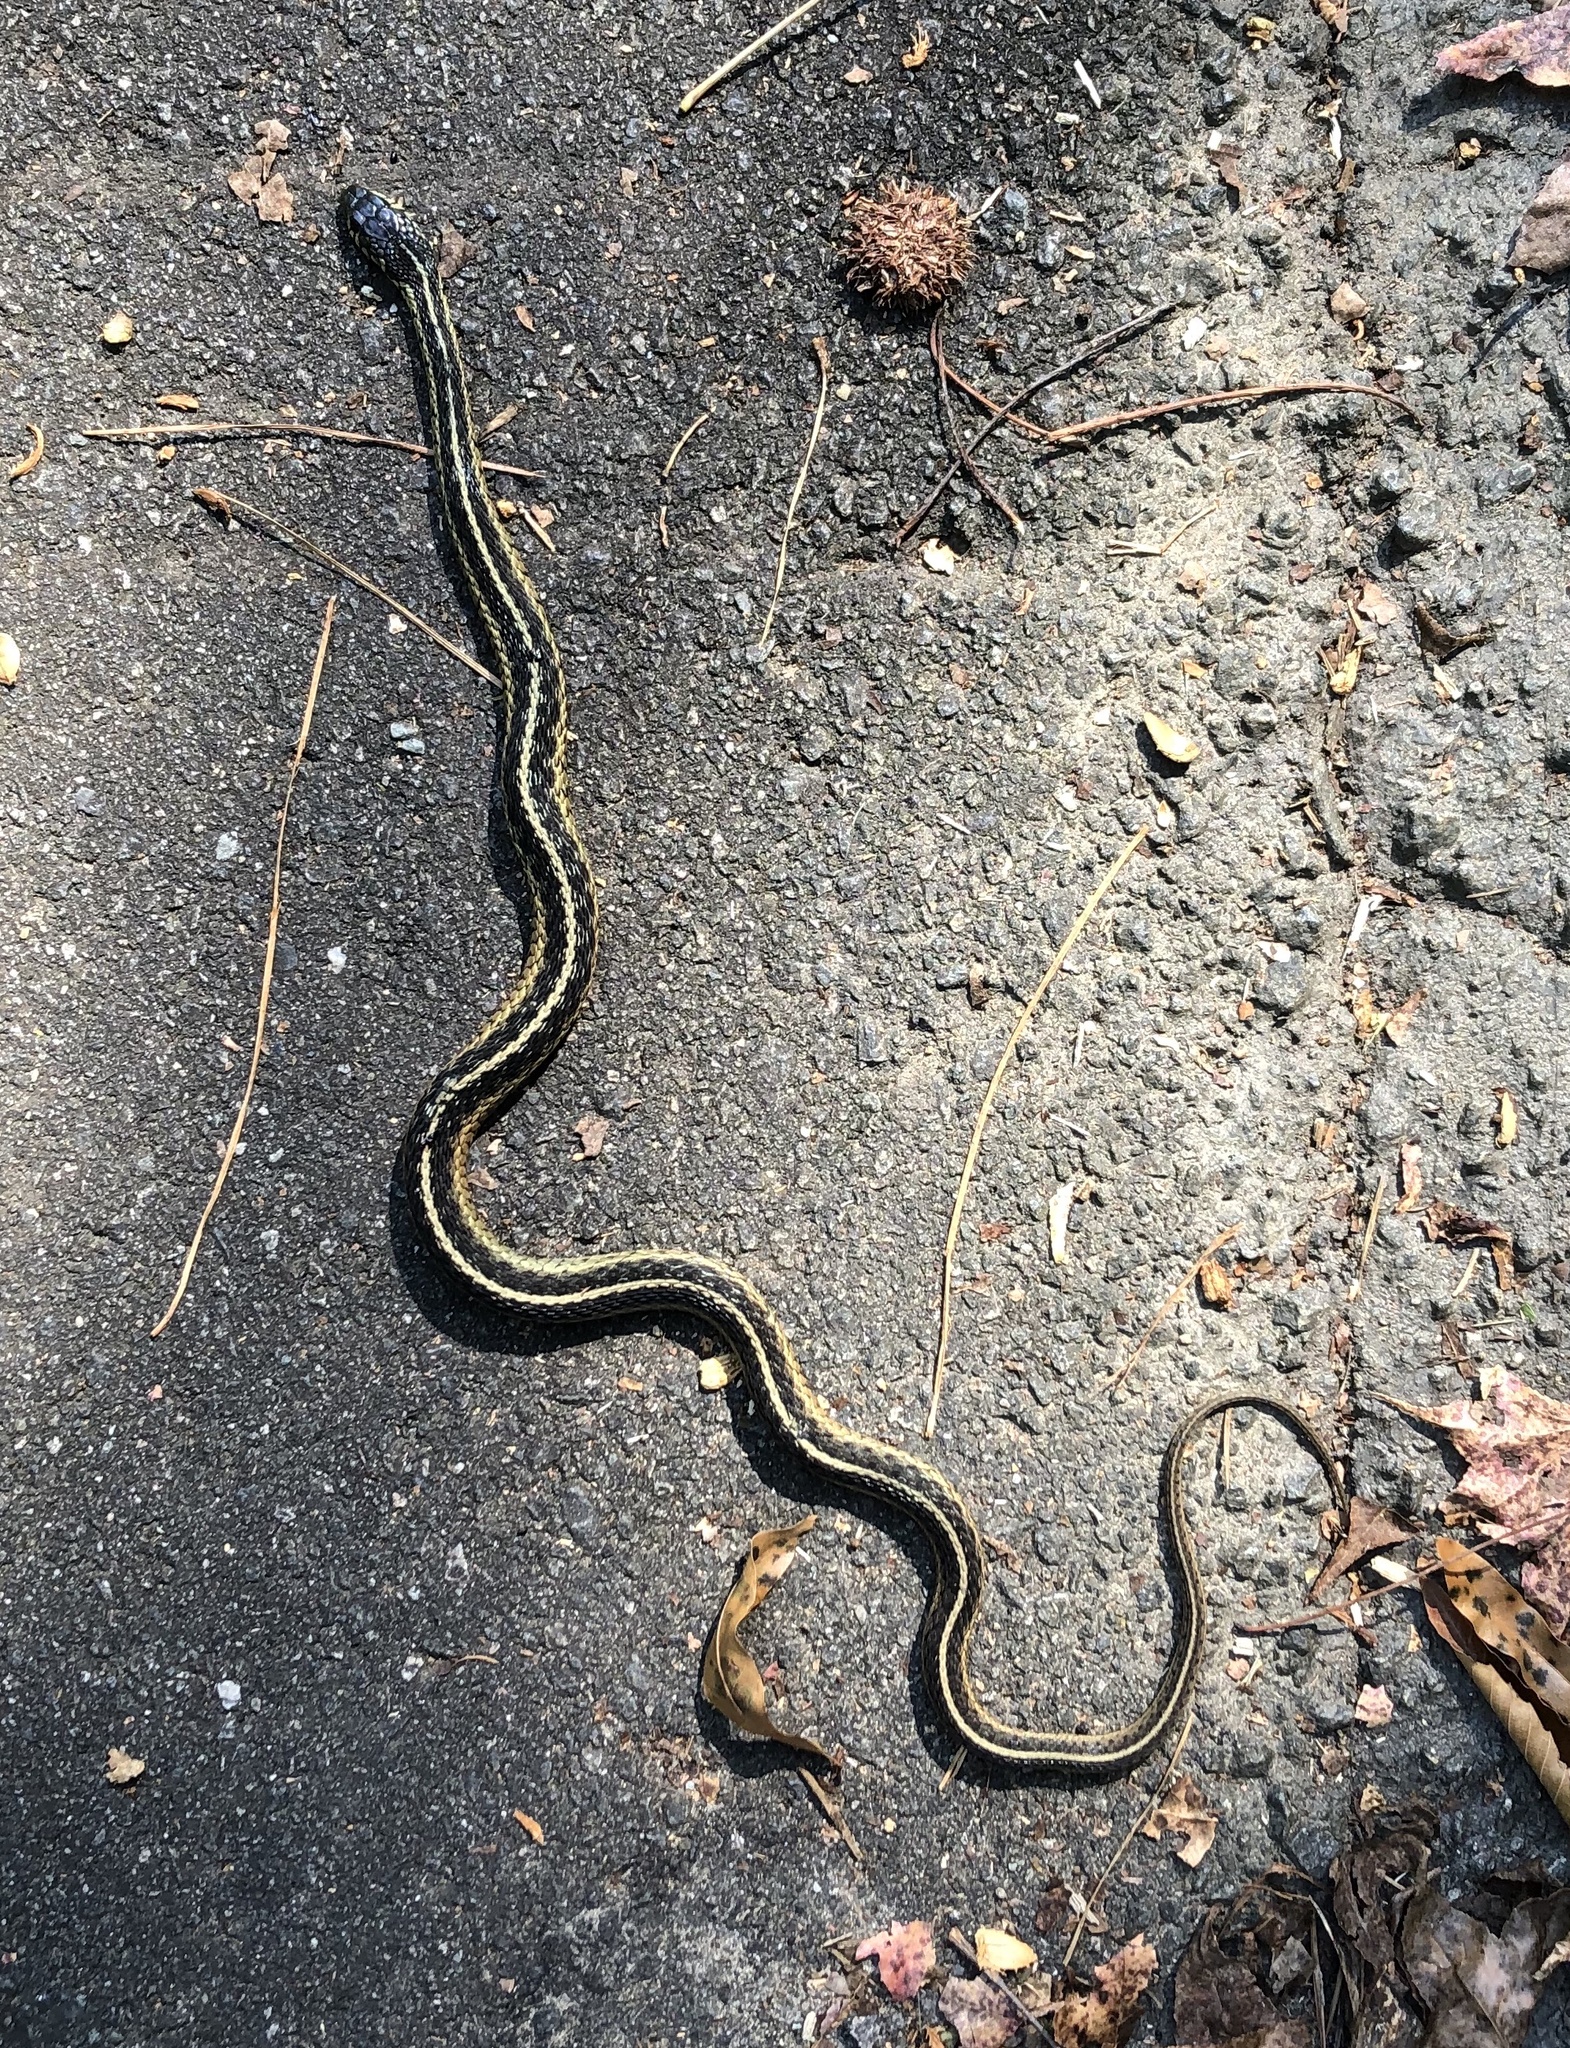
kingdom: Animalia
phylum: Chordata
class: Squamata
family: Colubridae
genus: Thamnophis
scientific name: Thamnophis sirtalis
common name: Common garter snake
